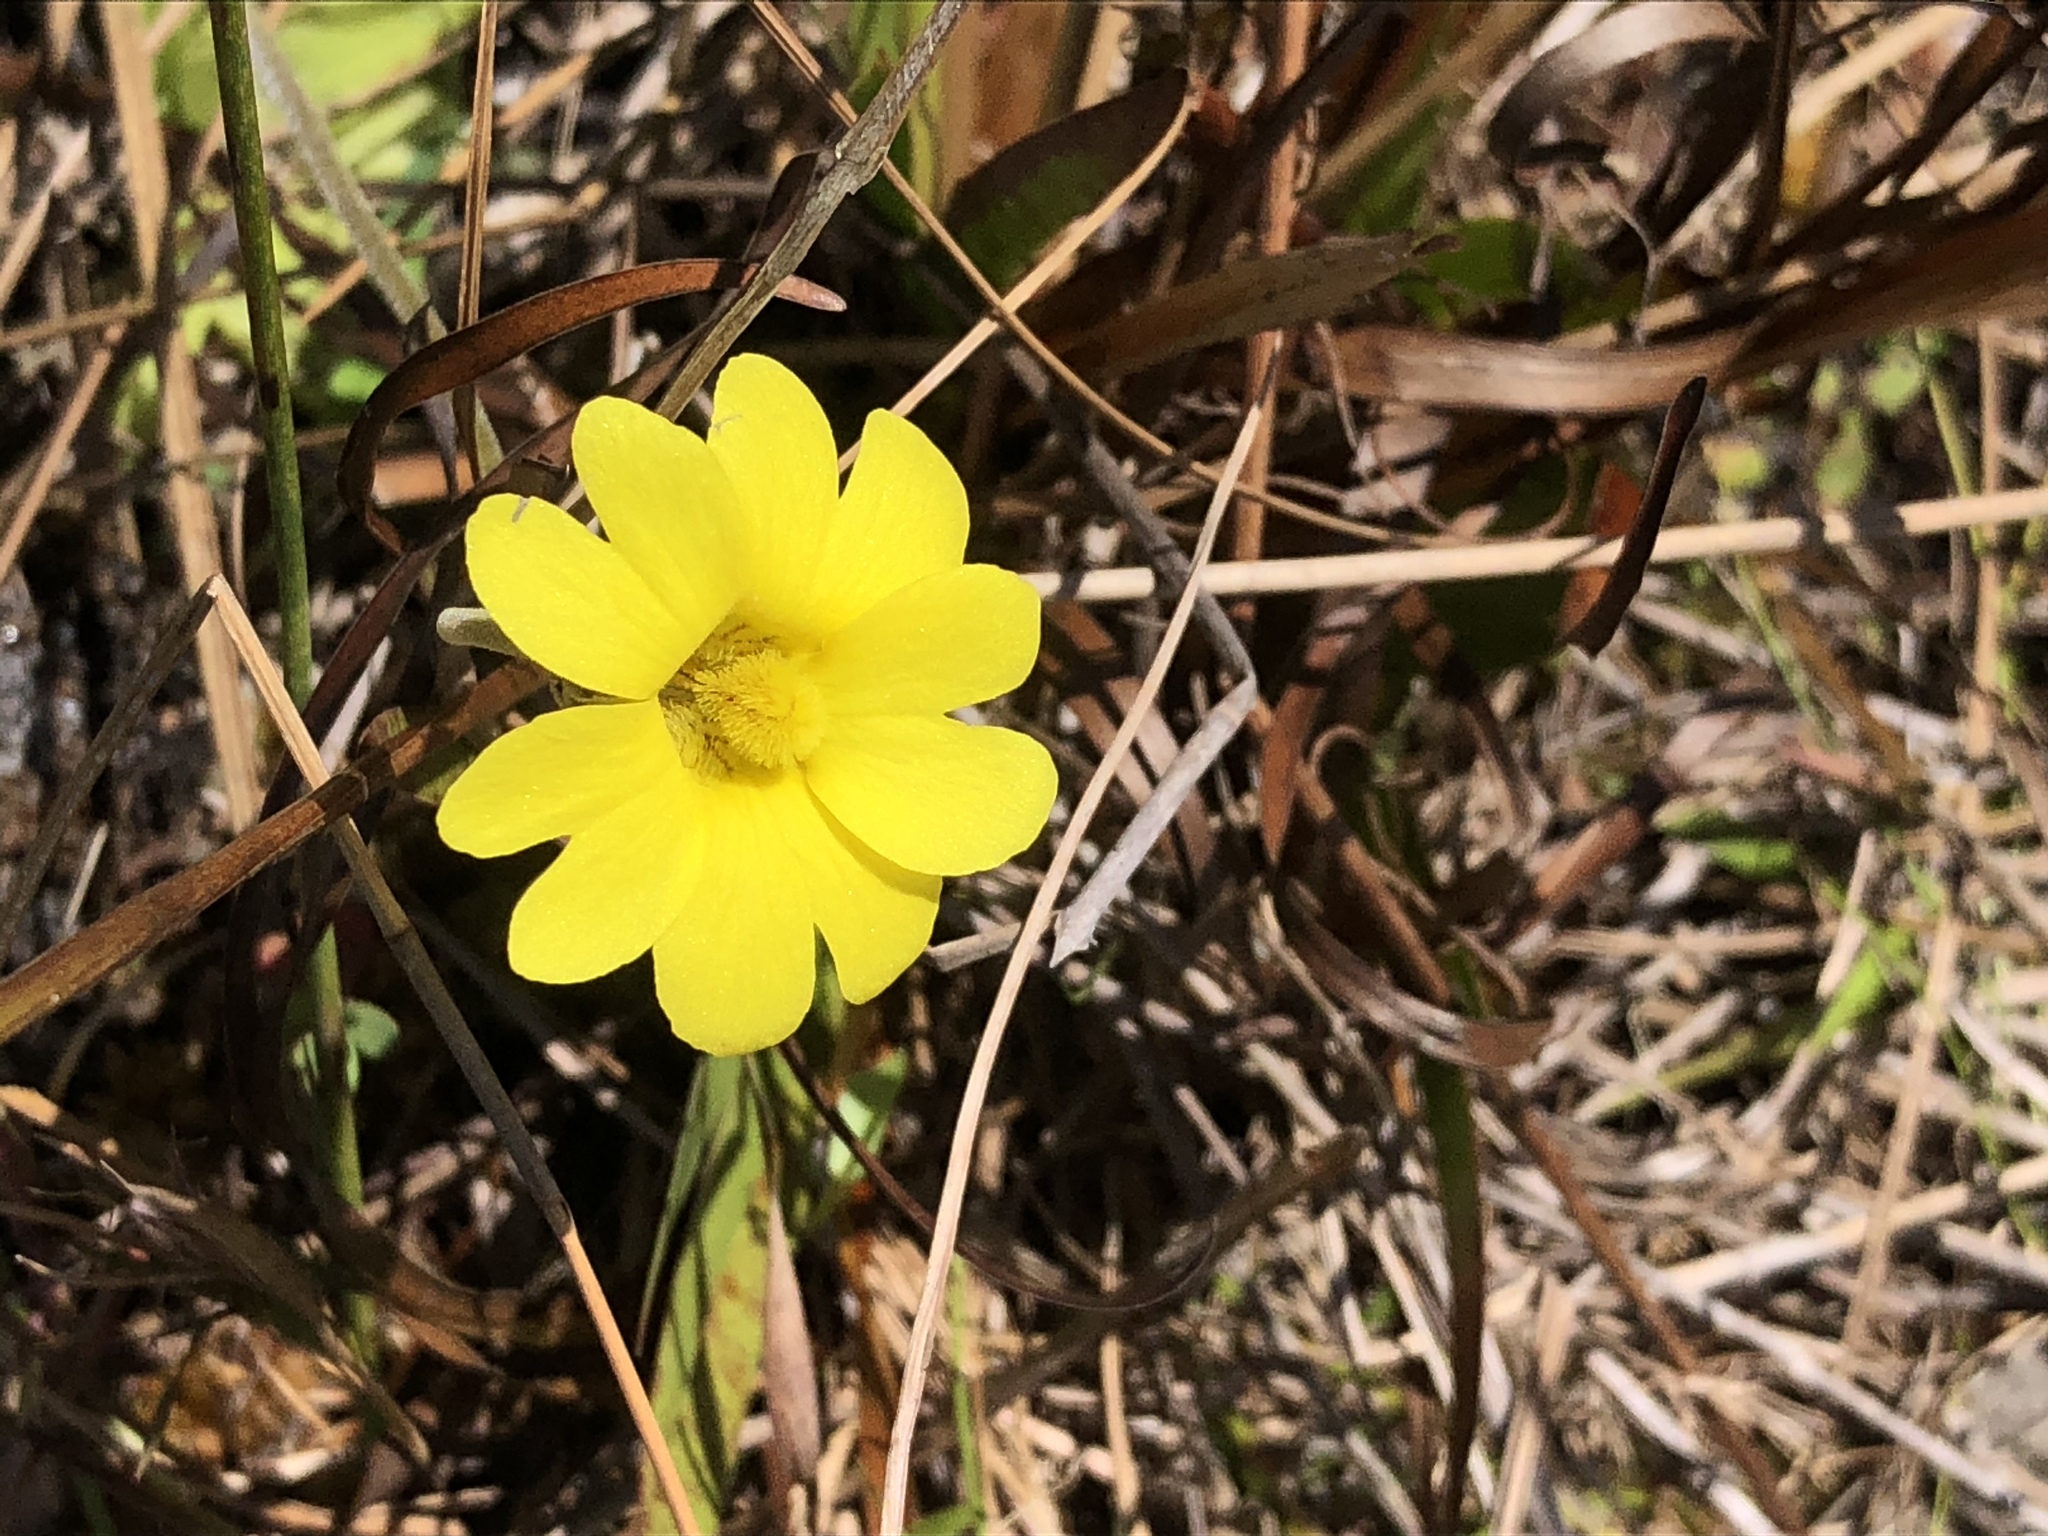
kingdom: Plantae
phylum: Tracheophyta
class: Magnoliopsida
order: Lamiales
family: Lentibulariaceae
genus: Pinguicula
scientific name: Pinguicula lutea
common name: Yellow butterwort
